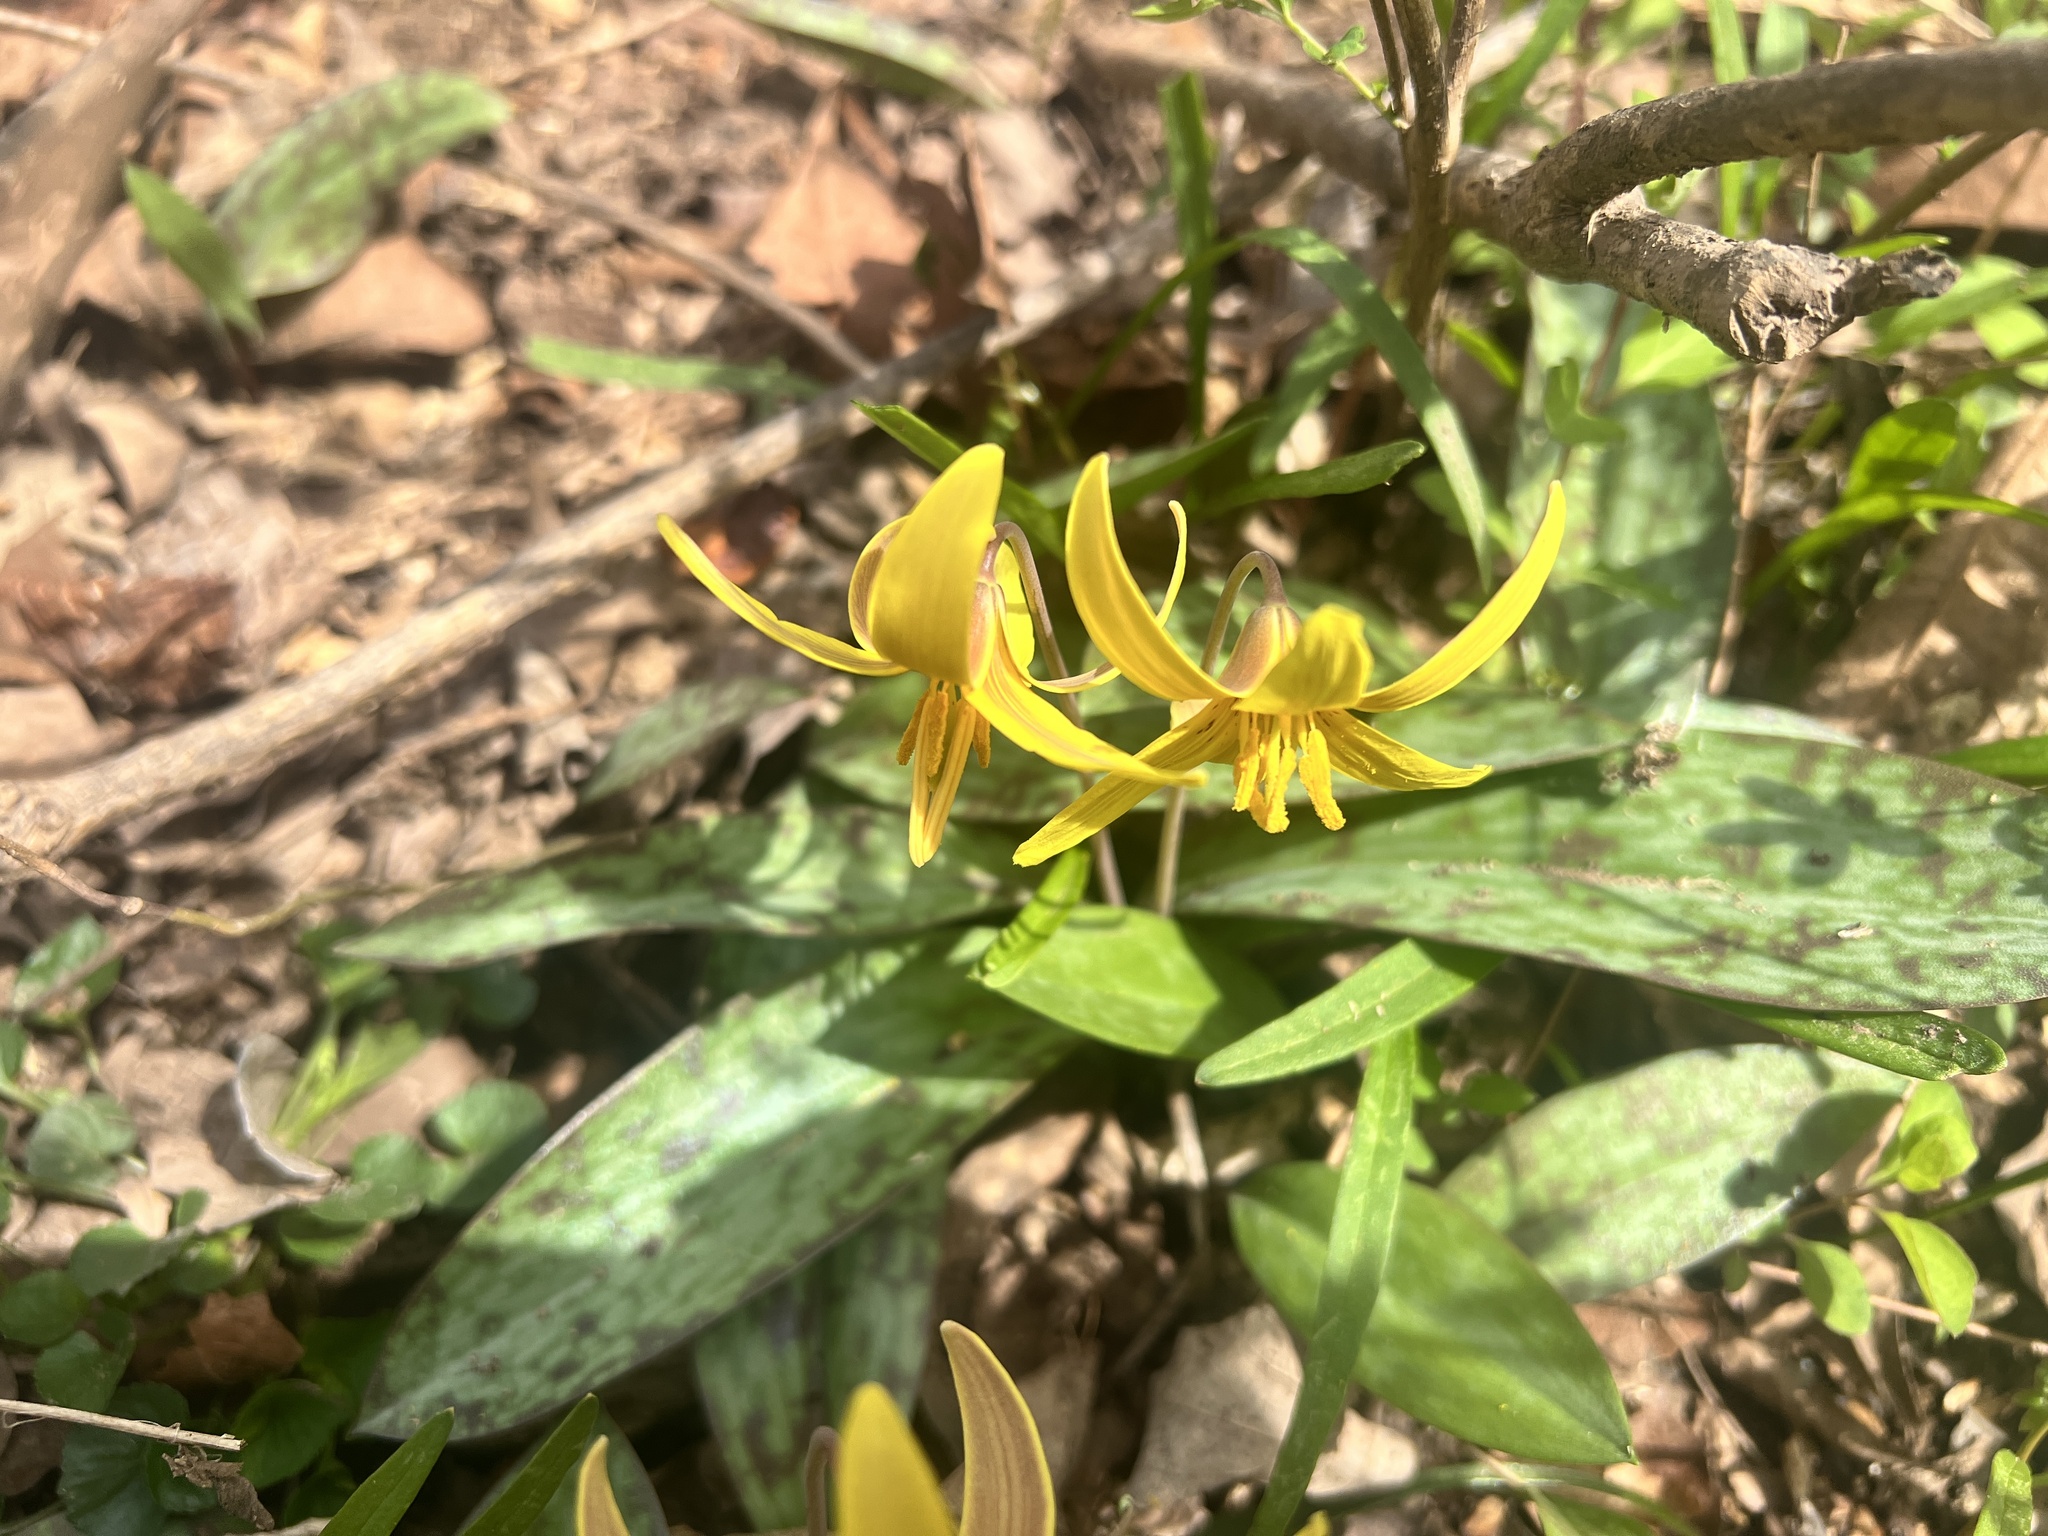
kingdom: Plantae
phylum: Tracheophyta
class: Liliopsida
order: Liliales
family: Liliaceae
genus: Erythronium
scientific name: Erythronium americanum
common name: Yellow adder's-tongue
